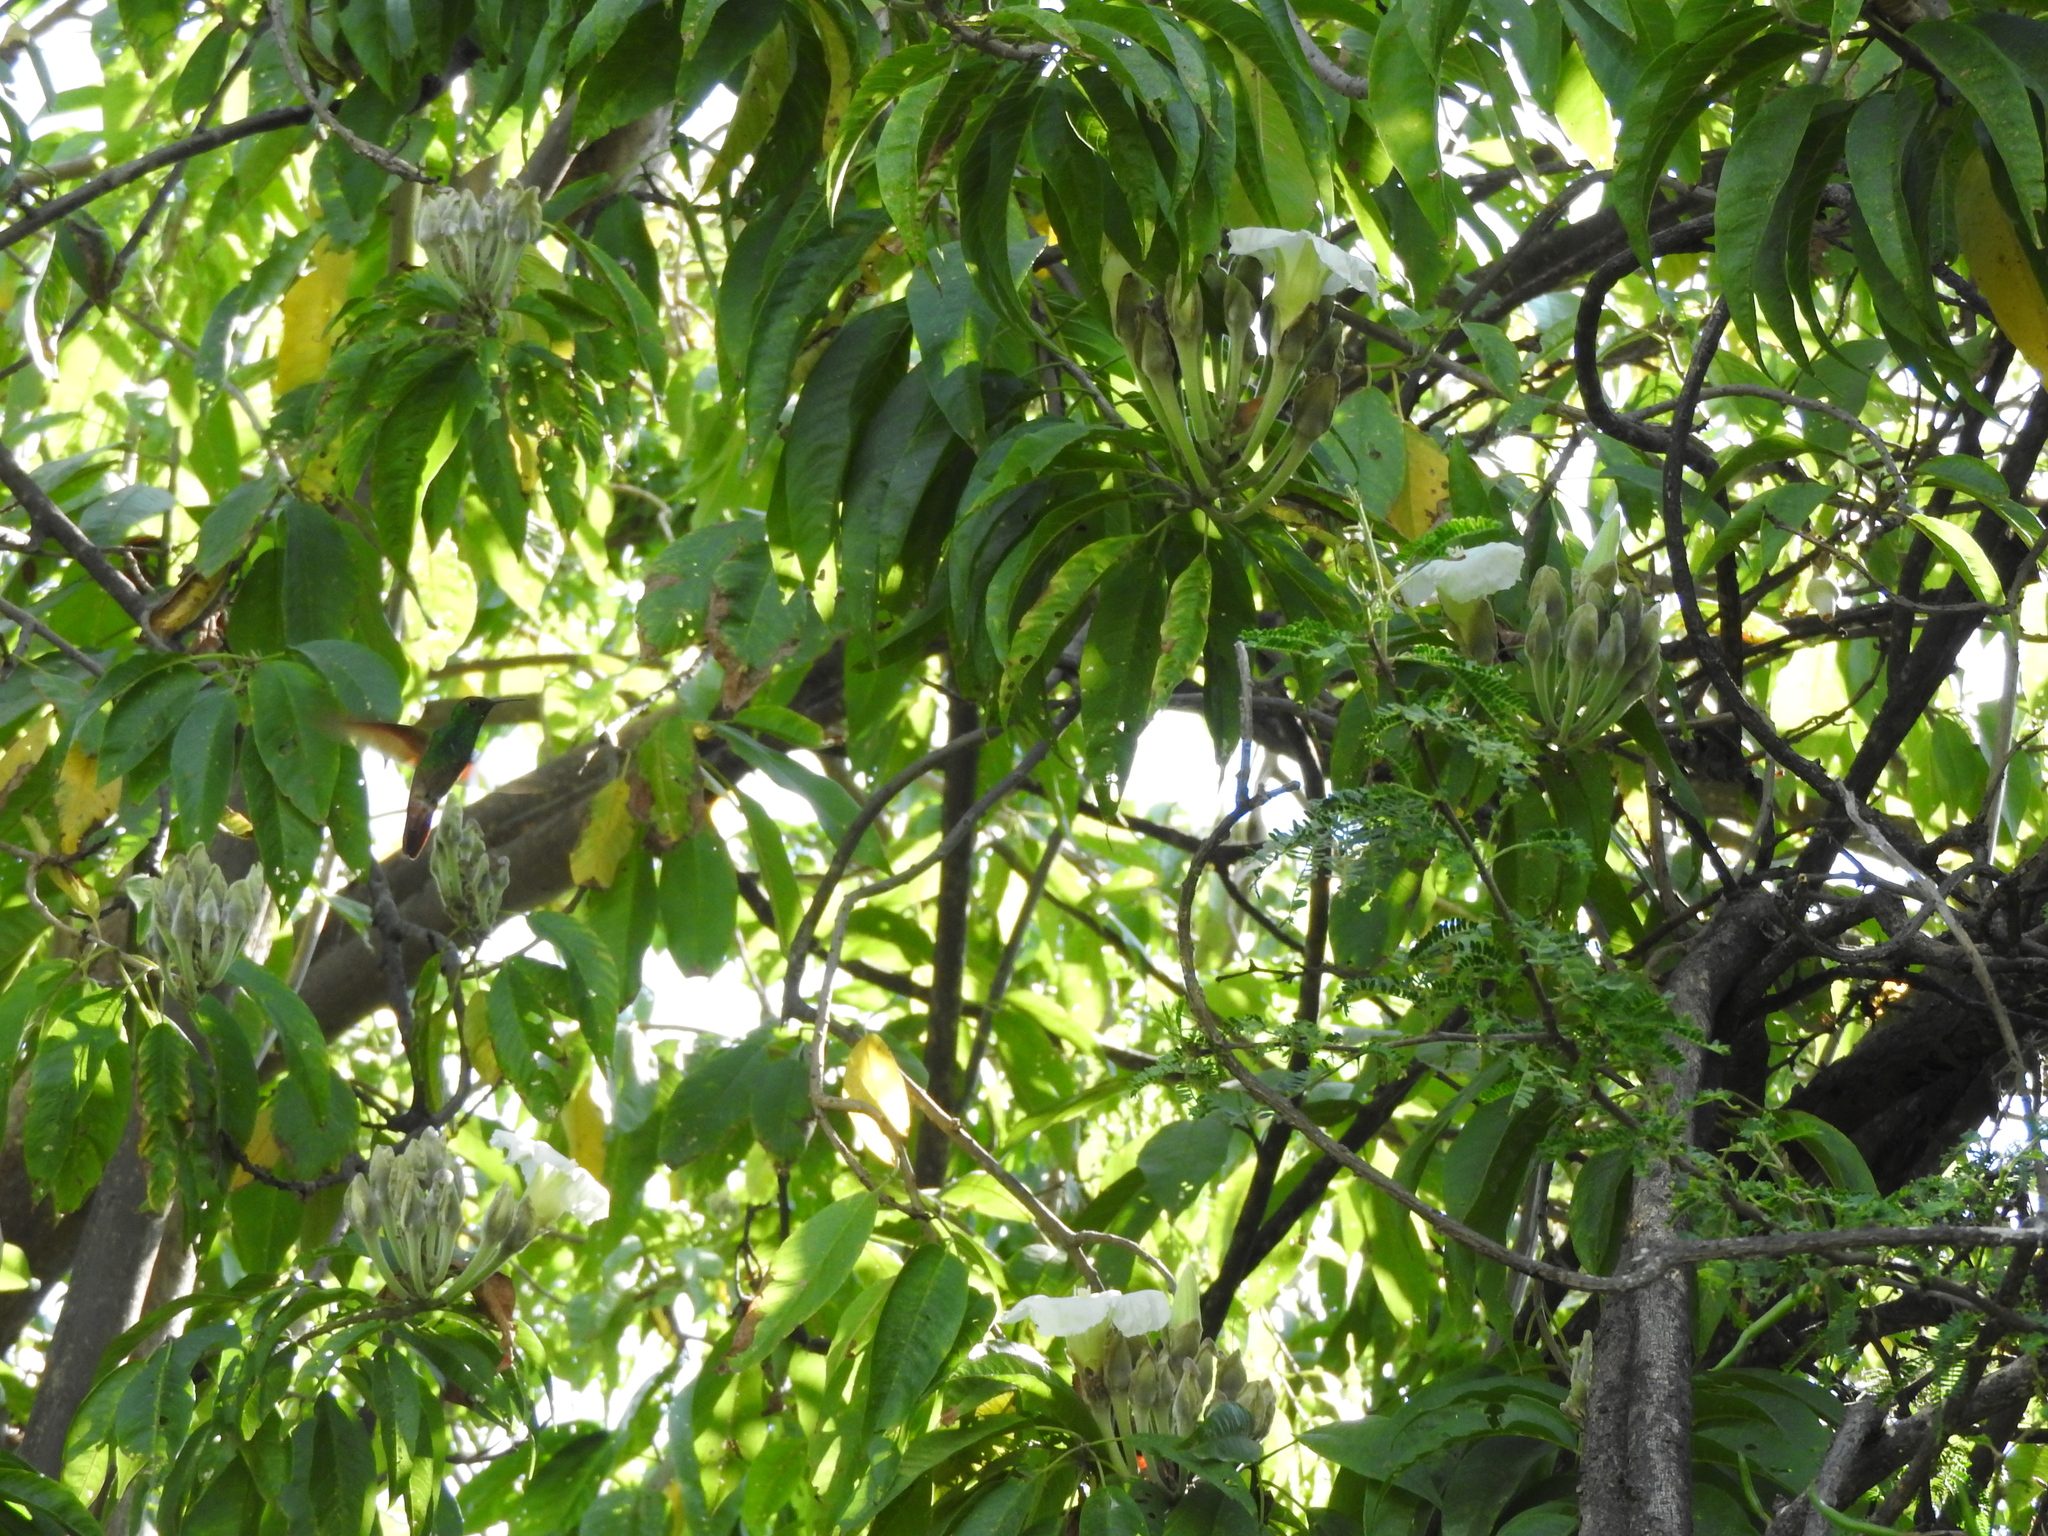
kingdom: Animalia
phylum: Chordata
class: Aves
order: Apodiformes
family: Trochilidae
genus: Saucerottia
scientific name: Saucerottia beryllina
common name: Berylline hummingbird
